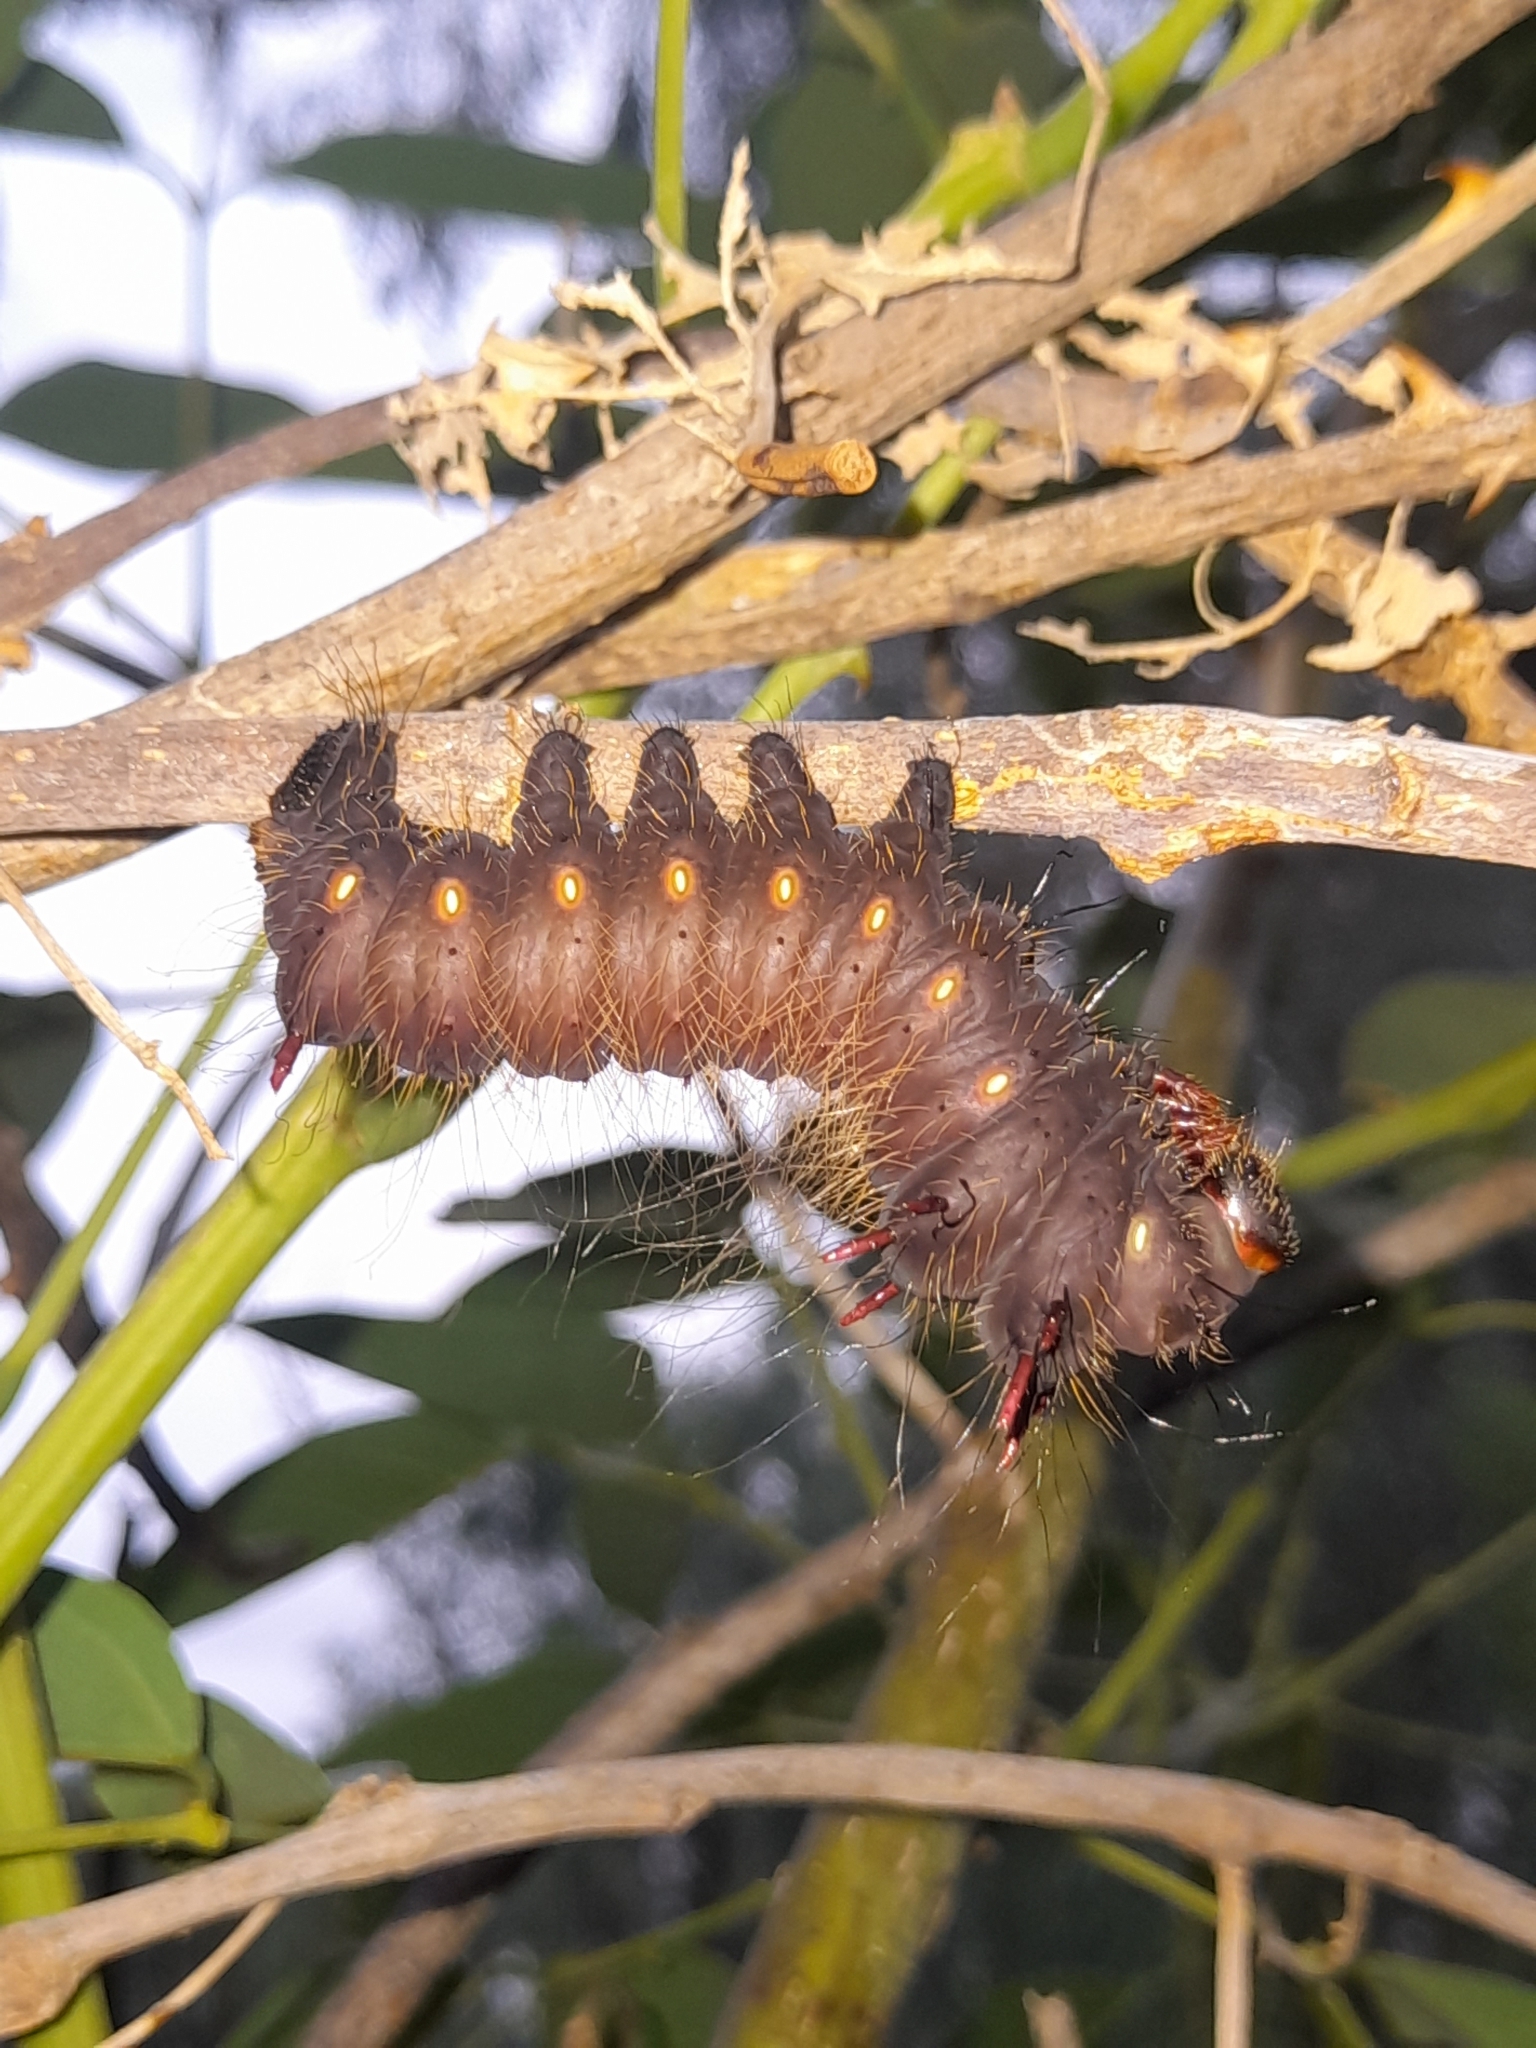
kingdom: Animalia
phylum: Arthropoda
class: Insecta
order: Lepidoptera
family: Saturniidae
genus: Eacles
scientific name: Eacles imperialis
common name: Imperial moth
